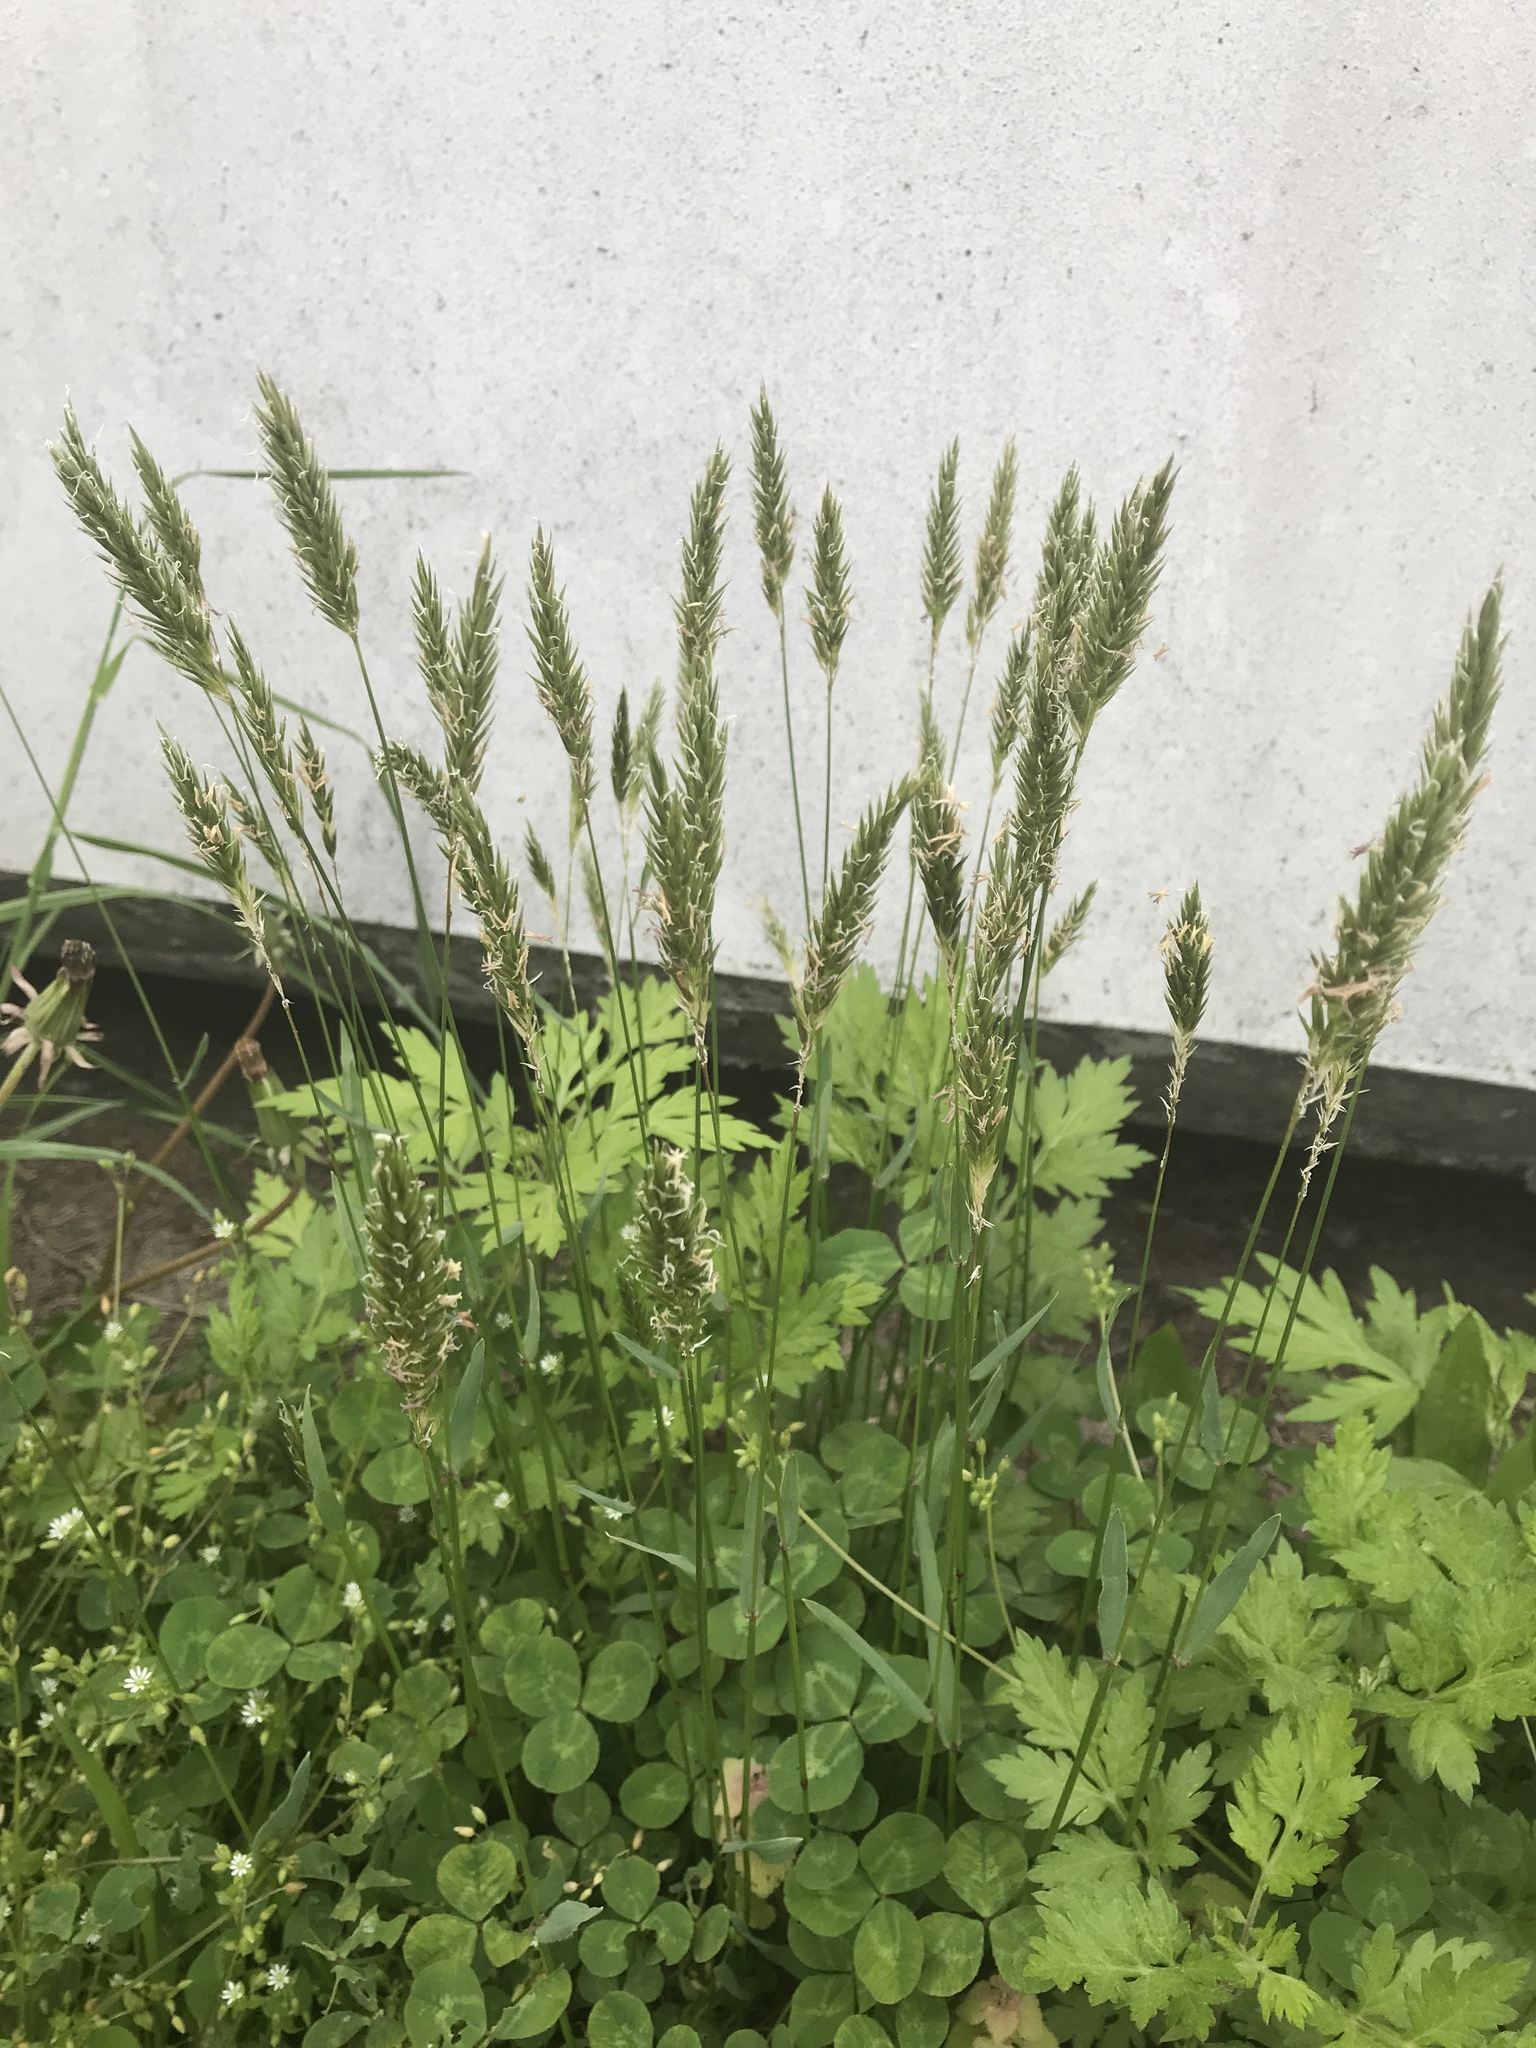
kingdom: Plantae
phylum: Tracheophyta
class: Liliopsida
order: Poales
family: Poaceae
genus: Anthoxanthum
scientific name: Anthoxanthum odoratum
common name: Sweet vernalgrass
